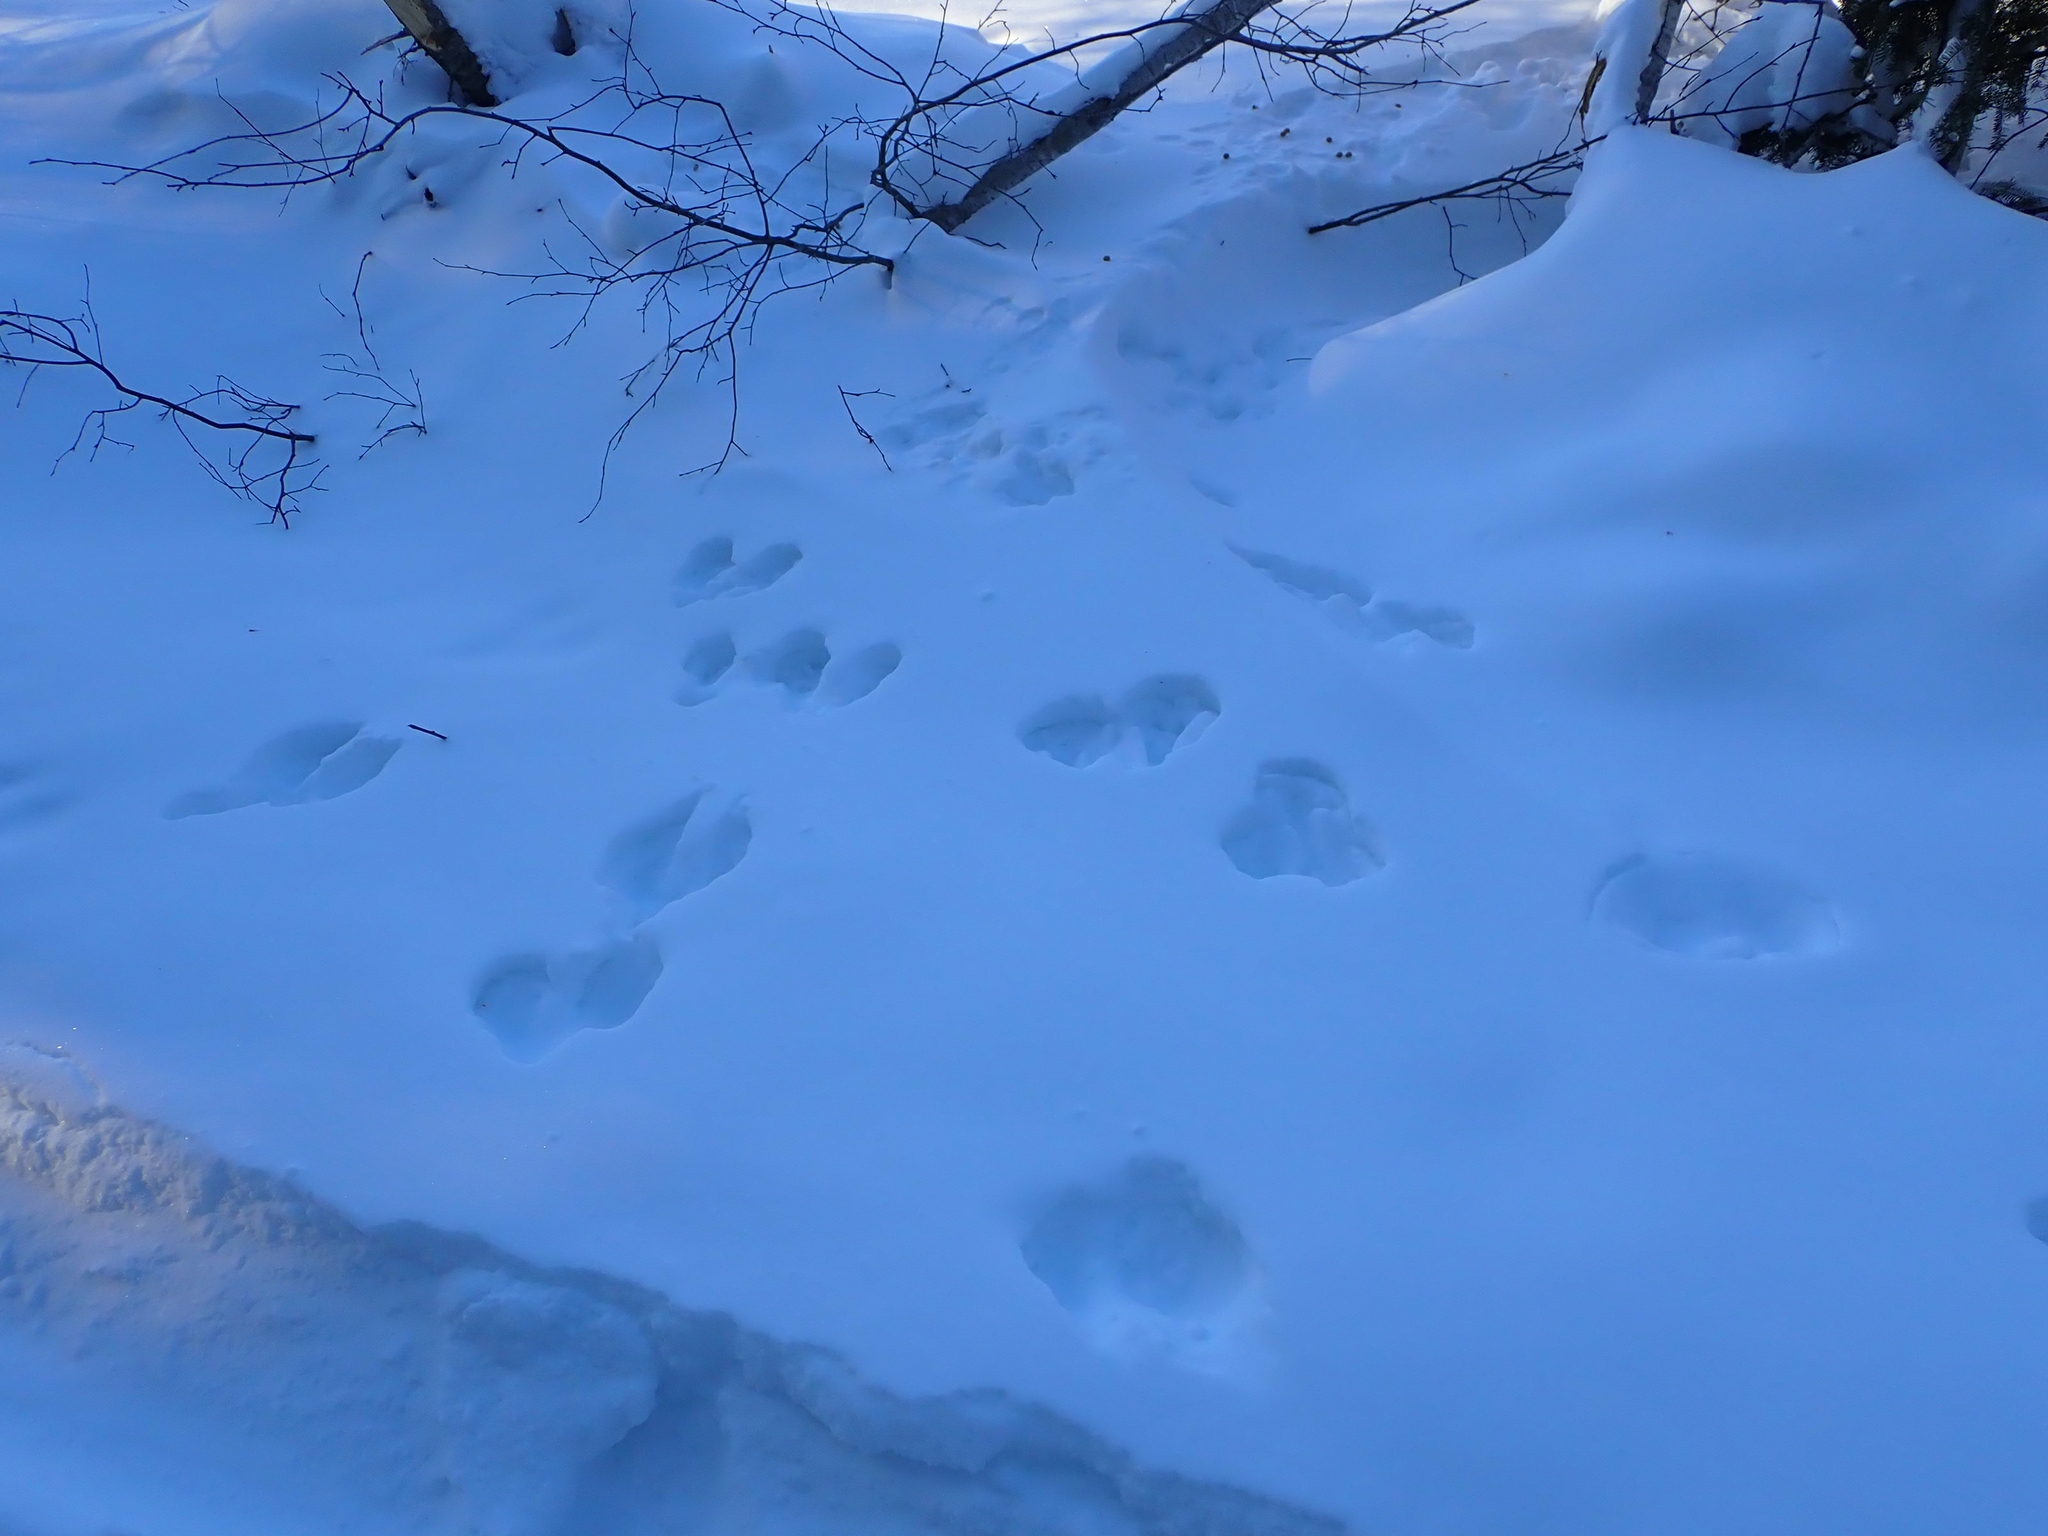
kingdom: Animalia
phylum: Chordata
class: Mammalia
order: Lagomorpha
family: Leporidae
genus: Lepus
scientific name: Lepus americanus
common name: Snowshoe hare
